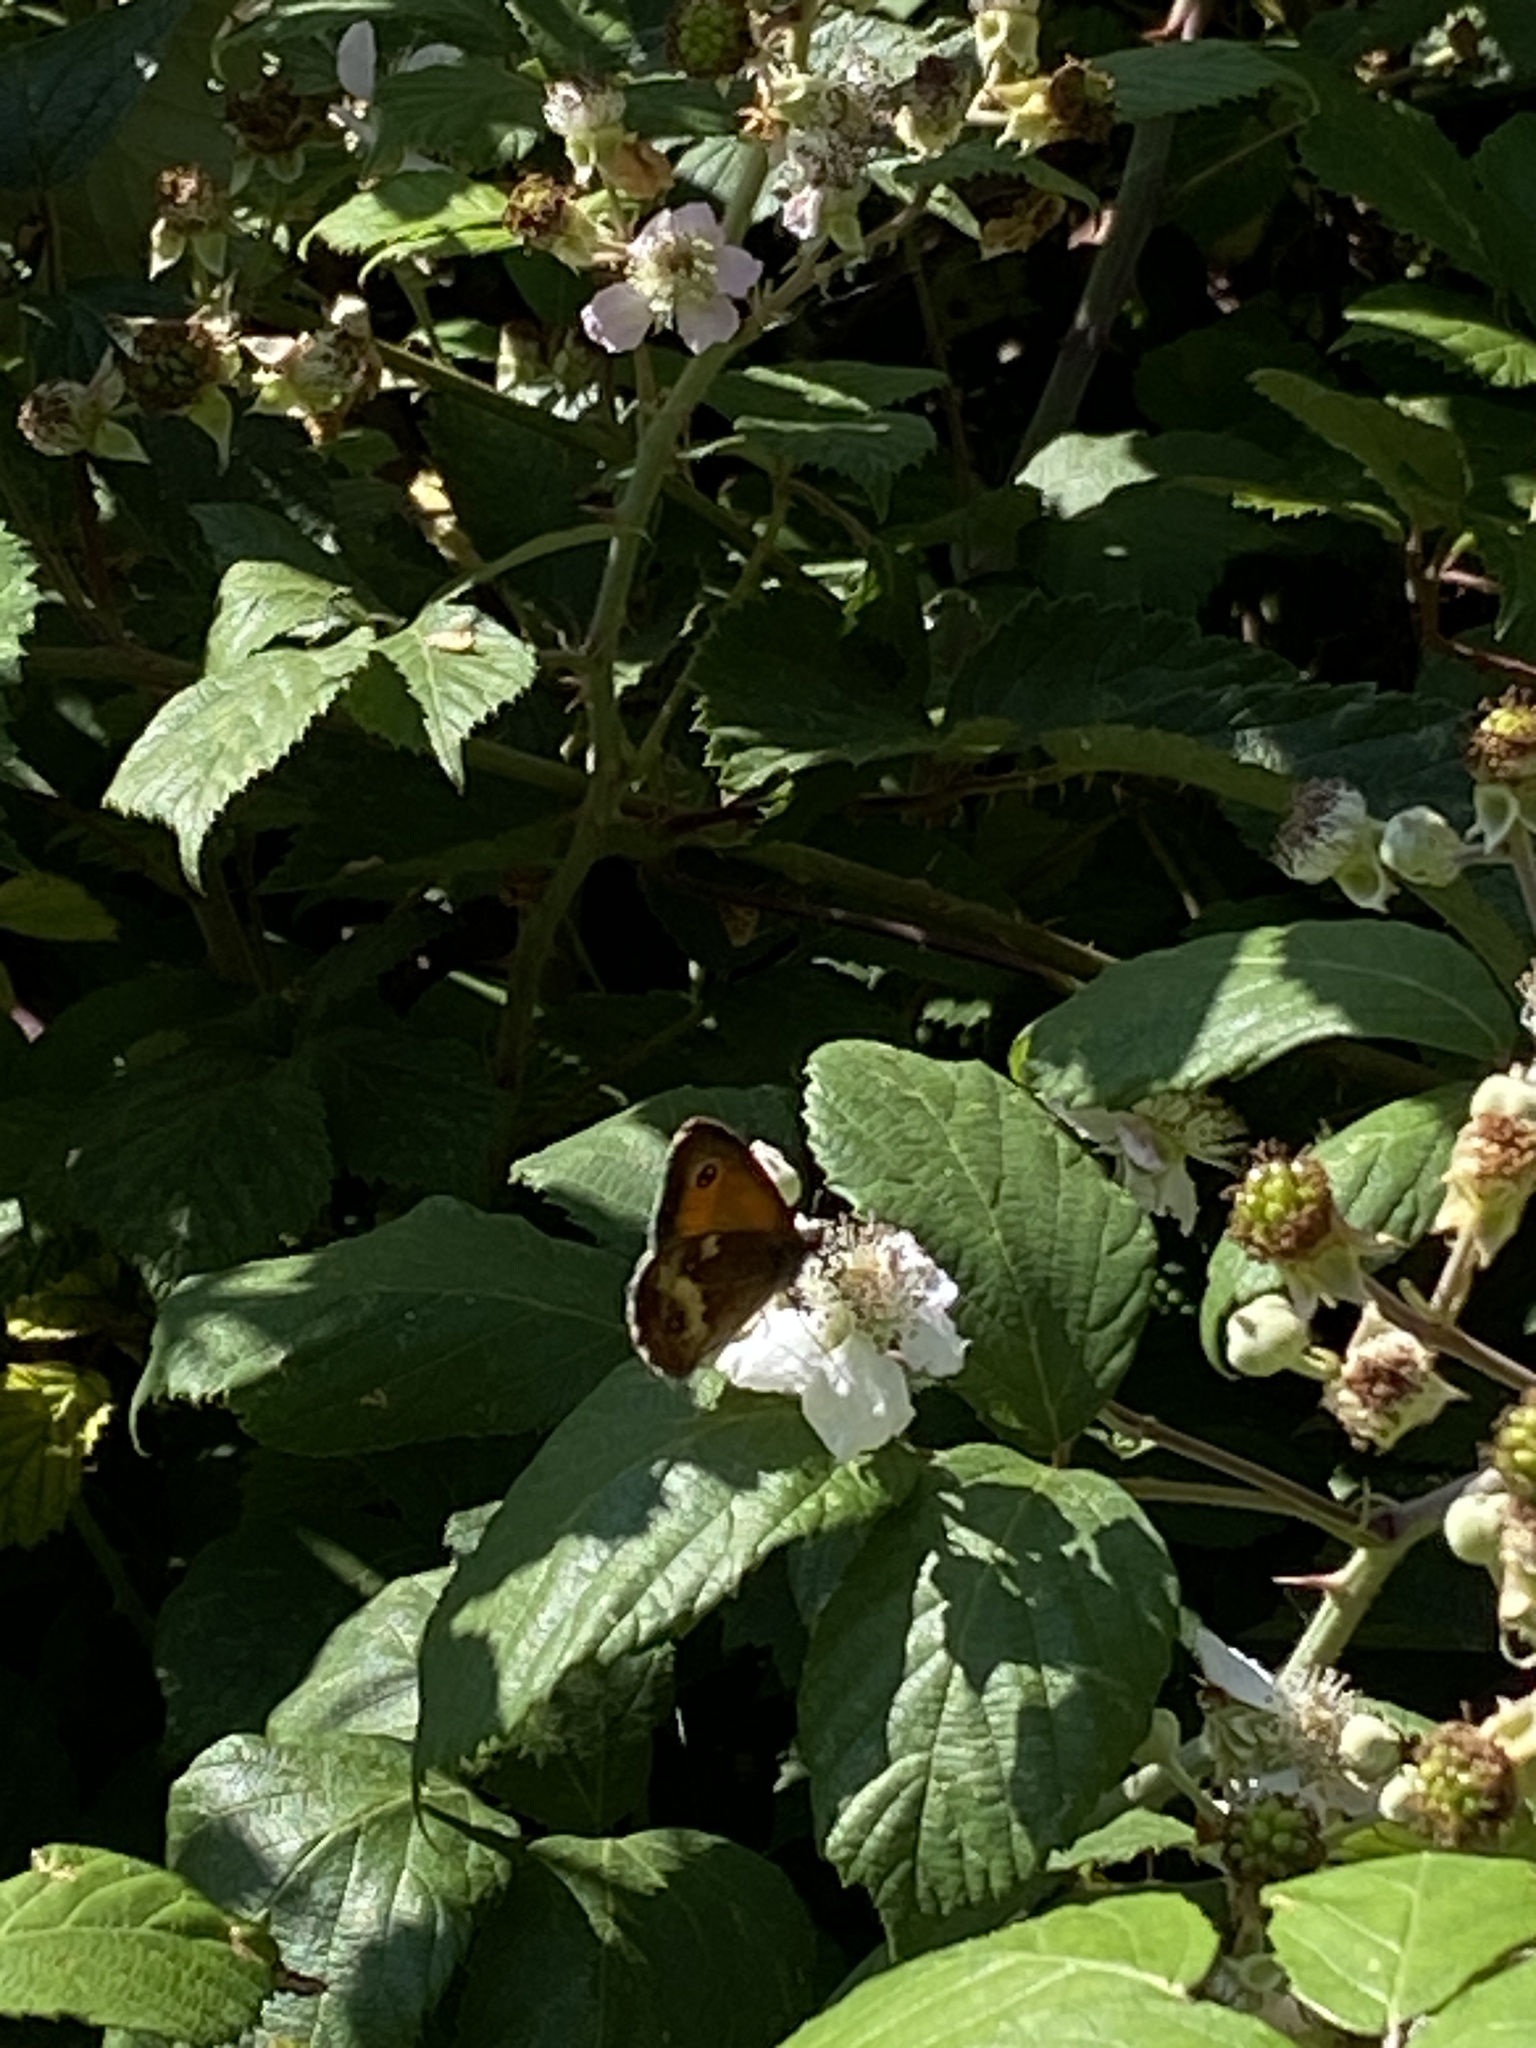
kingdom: Animalia
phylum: Arthropoda
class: Insecta
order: Lepidoptera
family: Nymphalidae
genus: Pyronia
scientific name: Pyronia tithonus
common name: Gatekeeper
